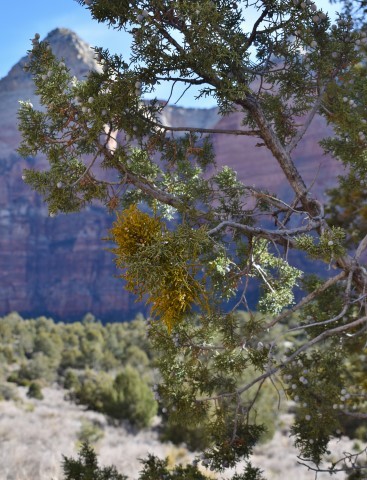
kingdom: Plantae
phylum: Tracheophyta
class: Magnoliopsida
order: Santalales
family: Viscaceae
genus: Phoradendron
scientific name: Phoradendron juniperinum
